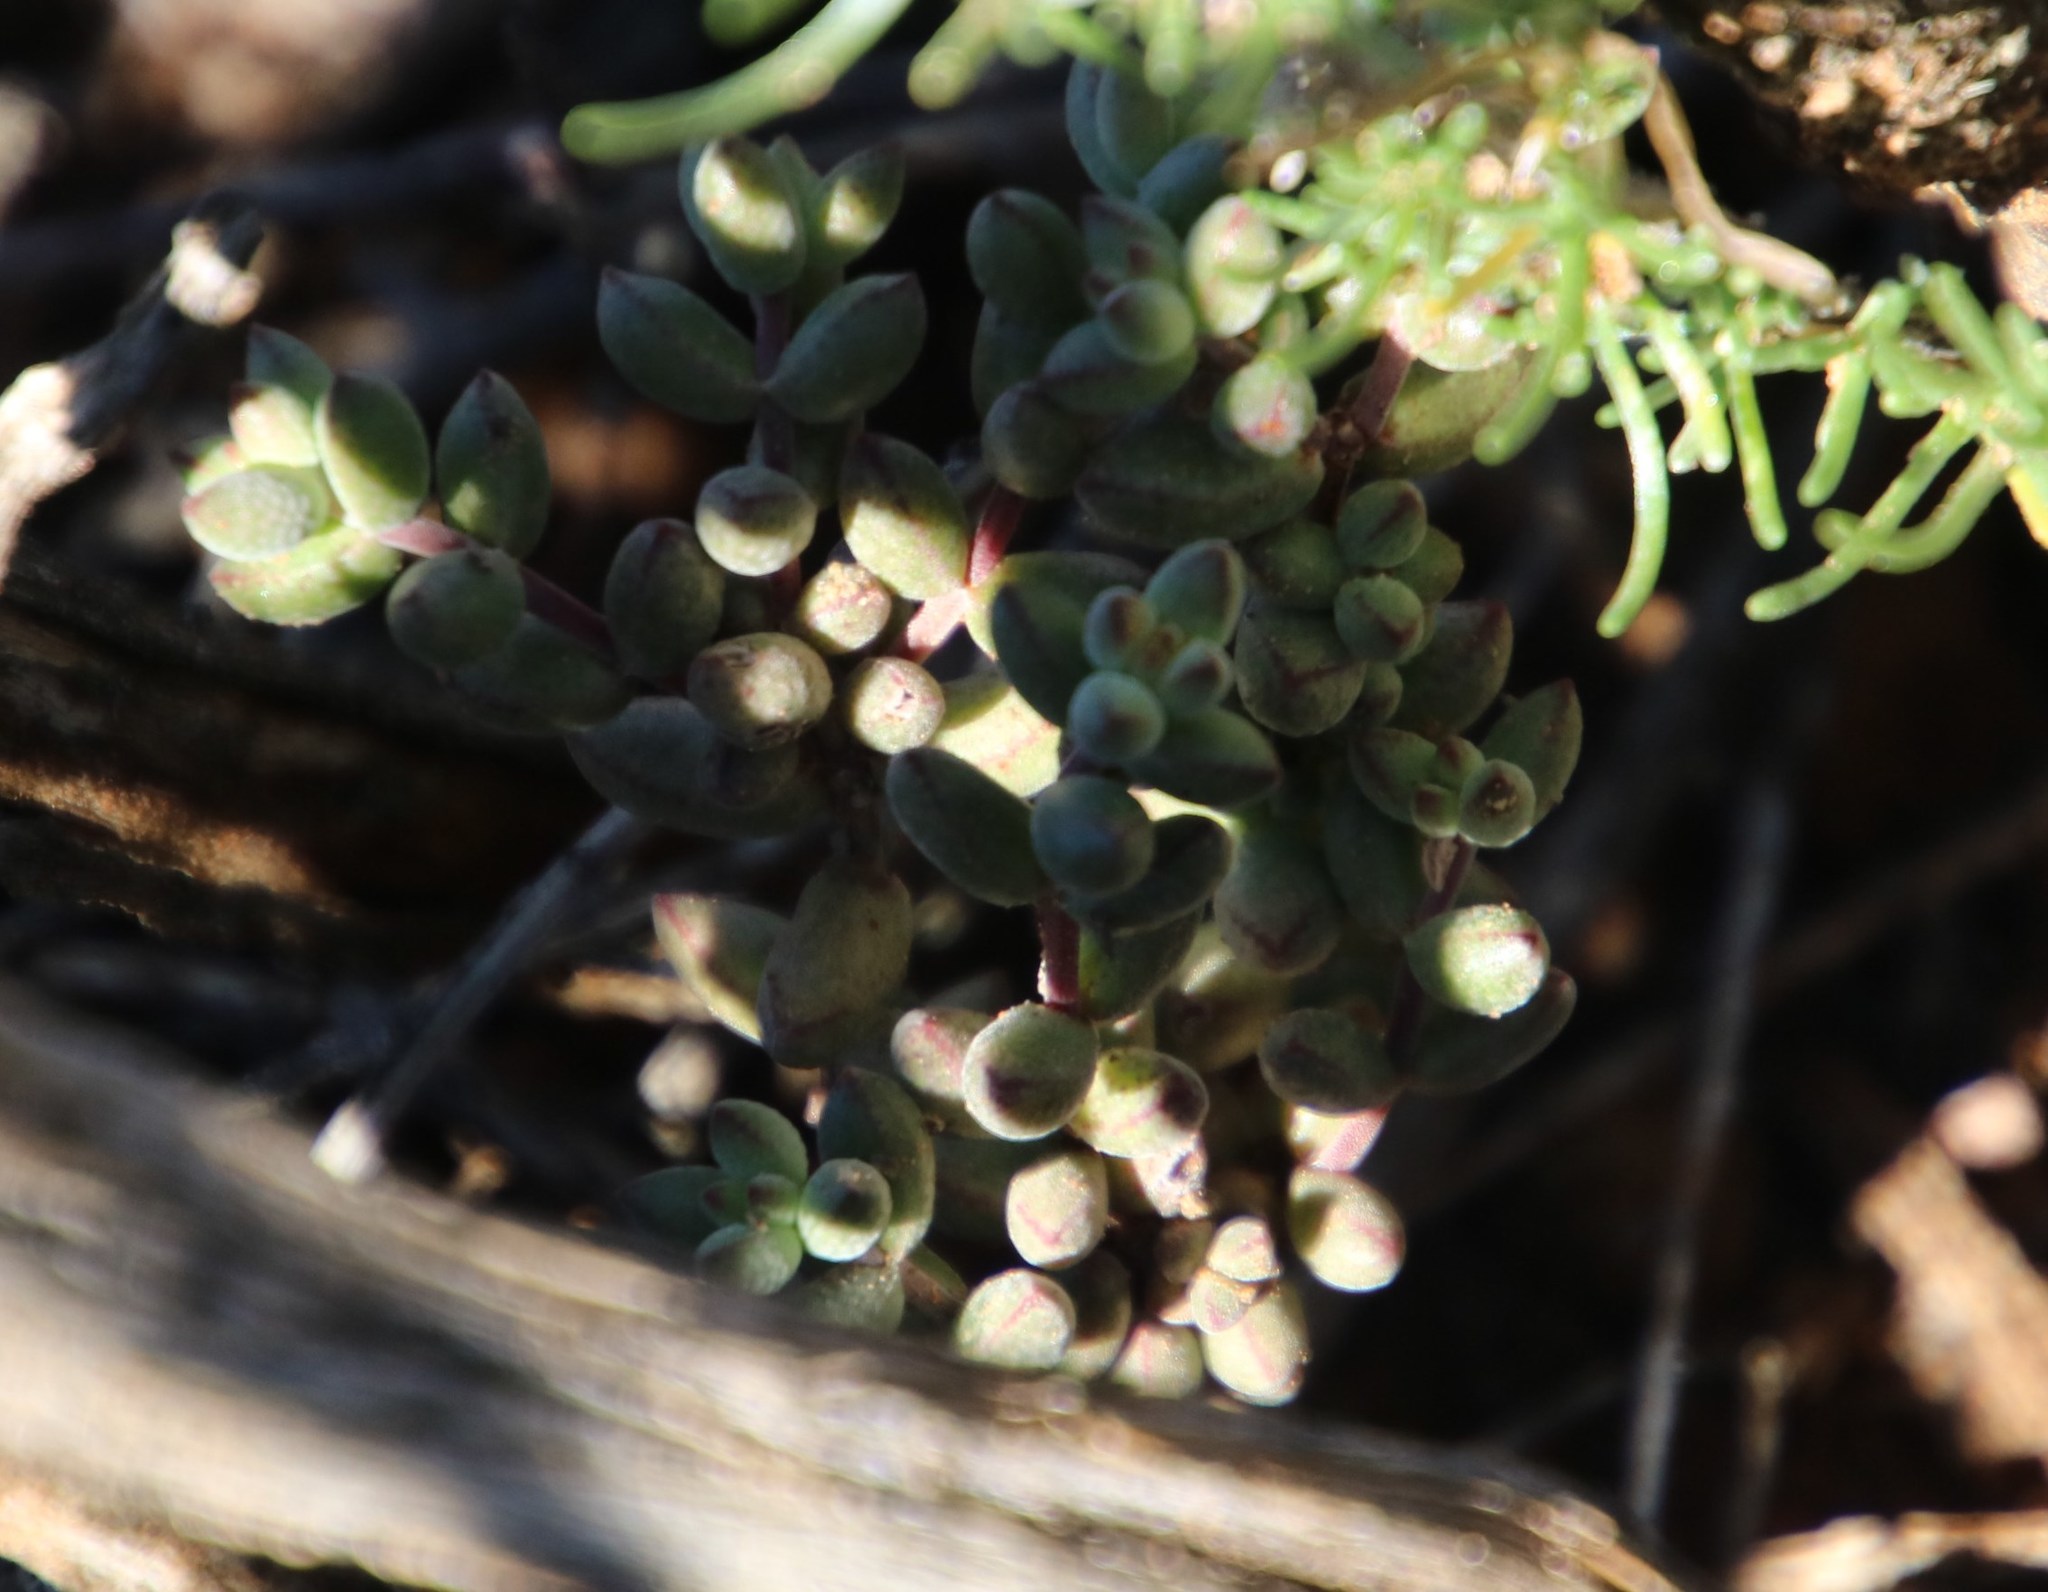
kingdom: Plantae
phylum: Tracheophyta
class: Magnoliopsida
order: Saxifragales
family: Crassulaceae
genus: Crassula
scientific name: Crassula subaphylla
